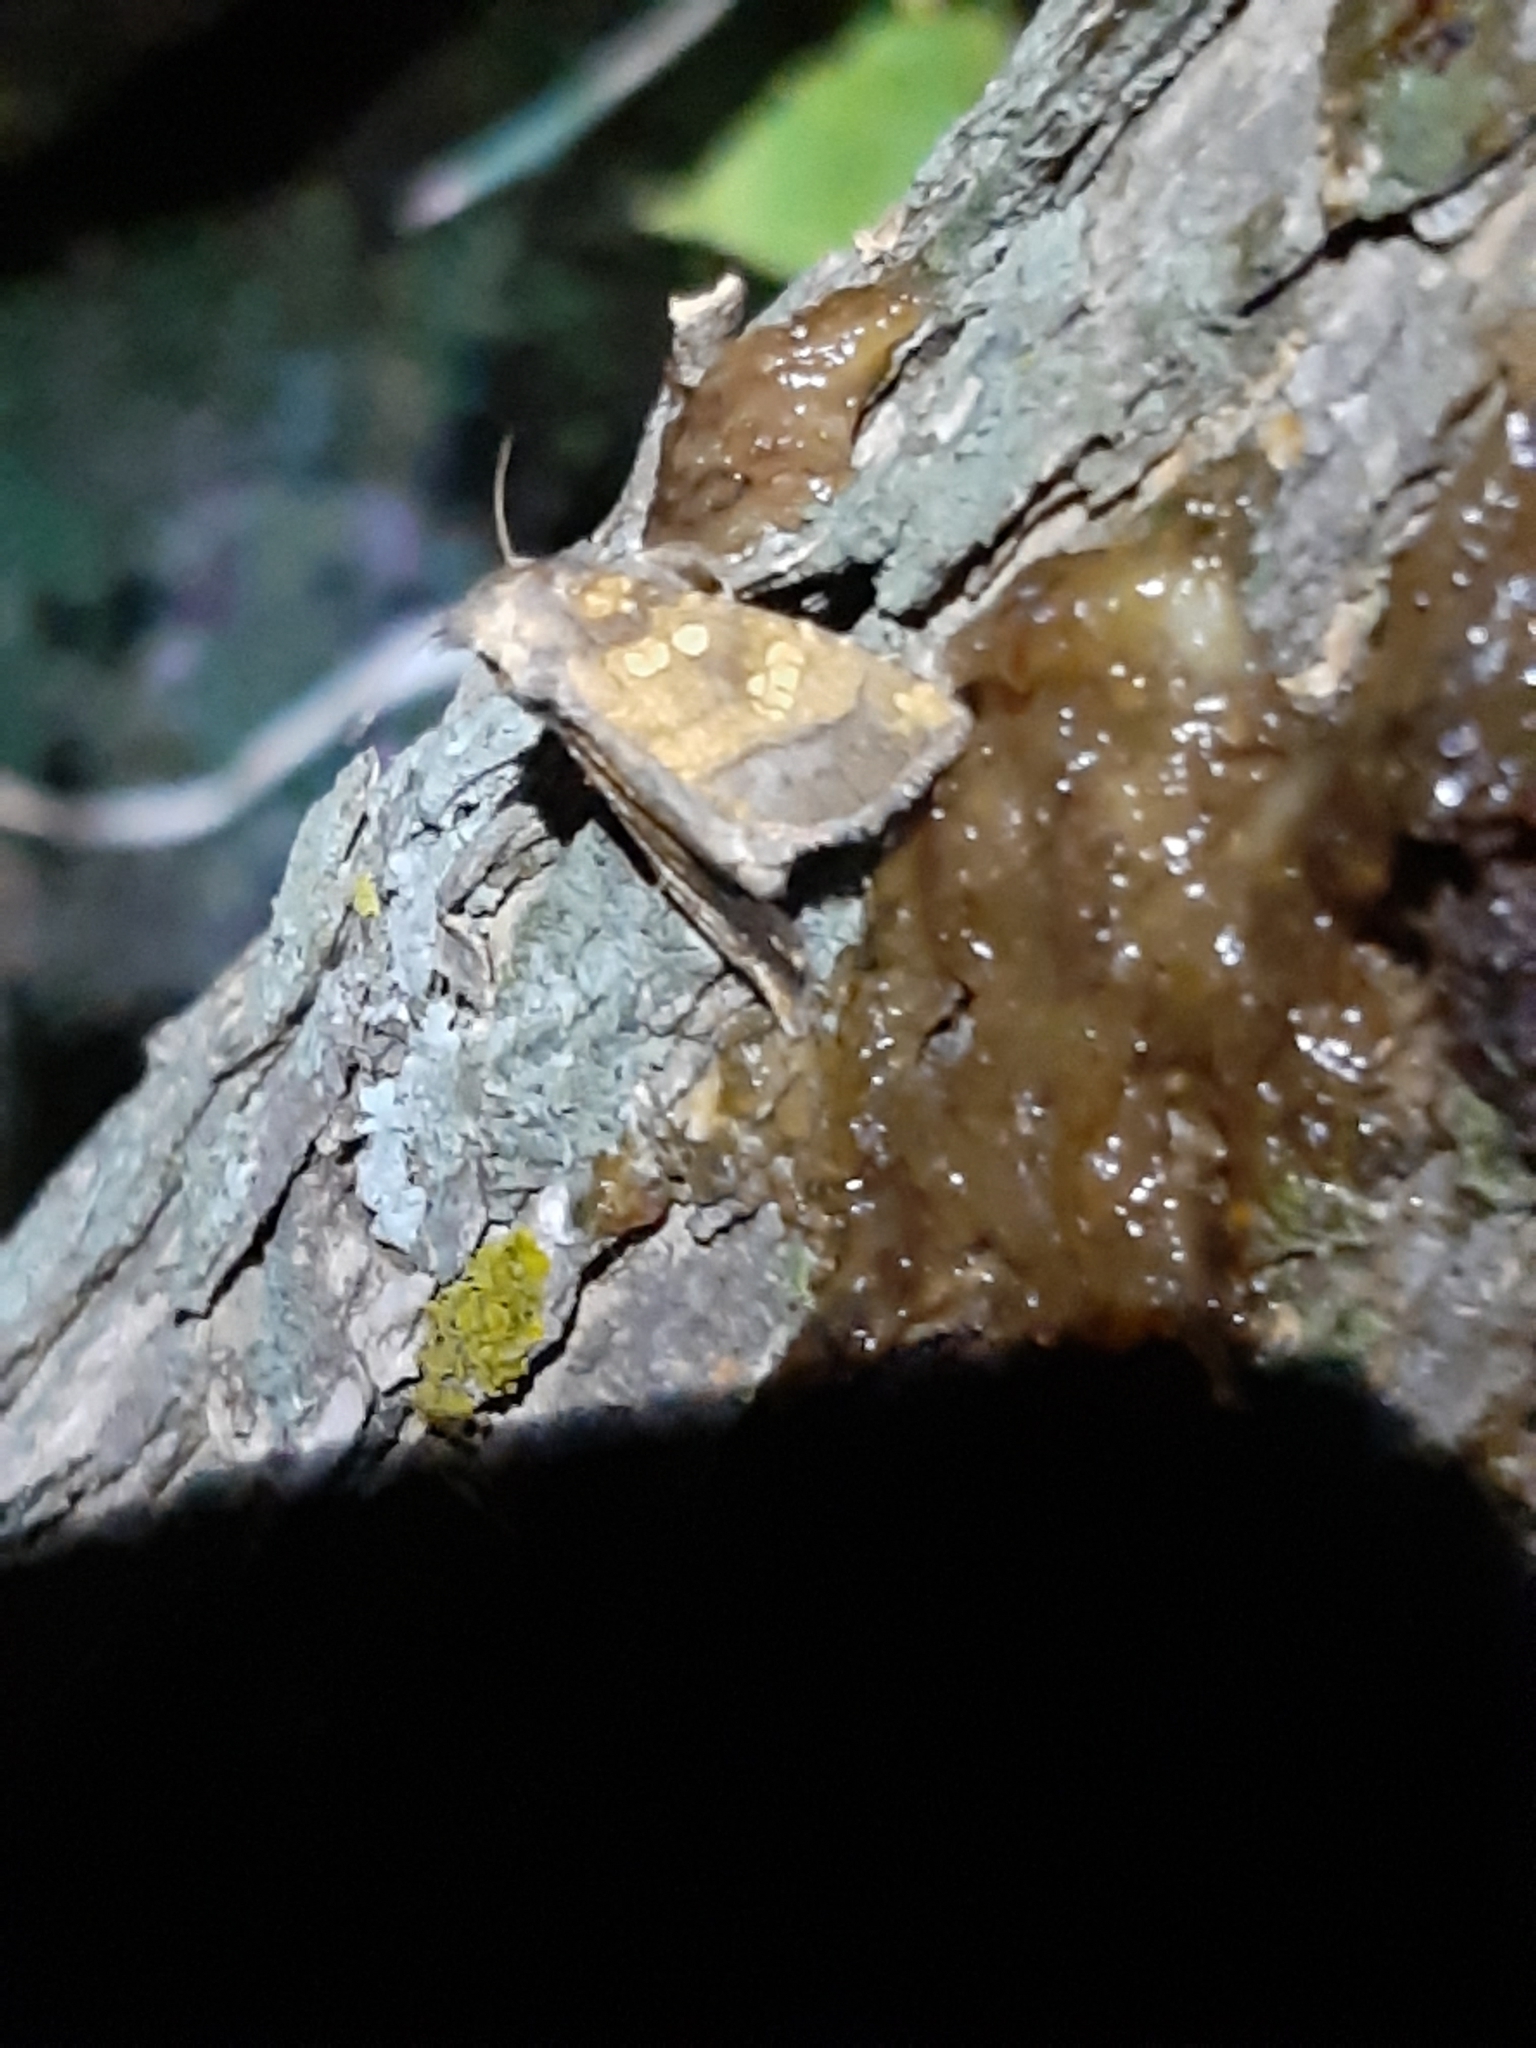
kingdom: Animalia
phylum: Arthropoda
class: Insecta
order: Lepidoptera
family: Noctuidae
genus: Papaipema
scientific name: Papaipema cataphracta
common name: Burdock borer
